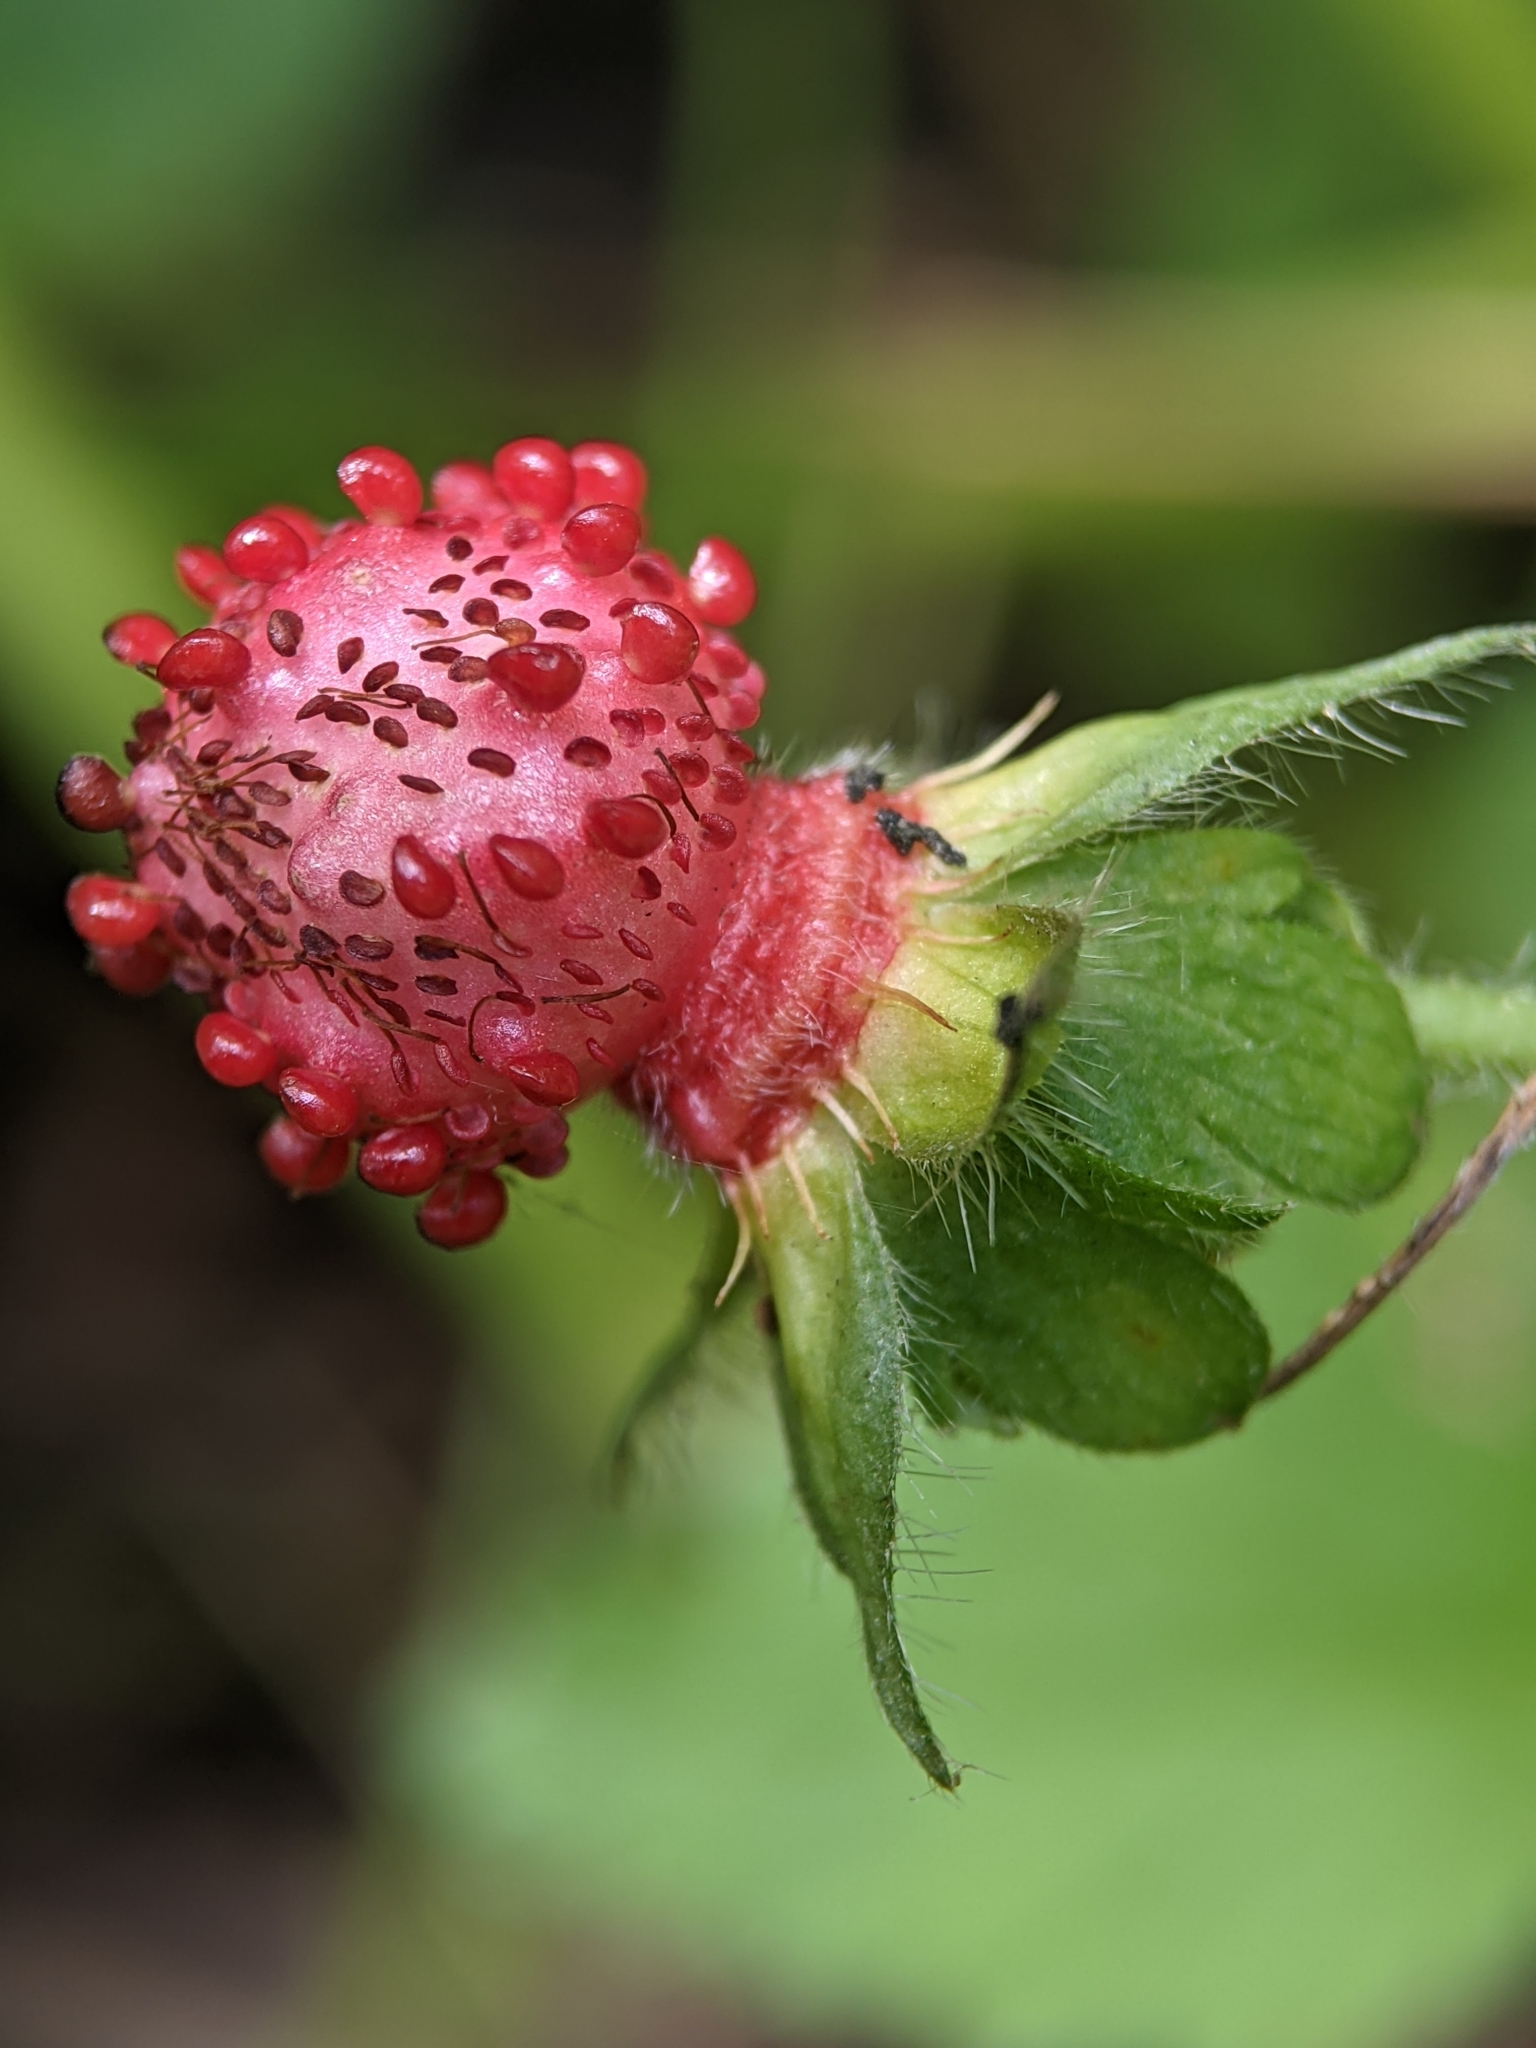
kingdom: Plantae
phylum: Tracheophyta
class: Magnoliopsida
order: Rosales
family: Rosaceae
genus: Potentilla
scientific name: Potentilla indica
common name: Yellow-flowered strawberry
